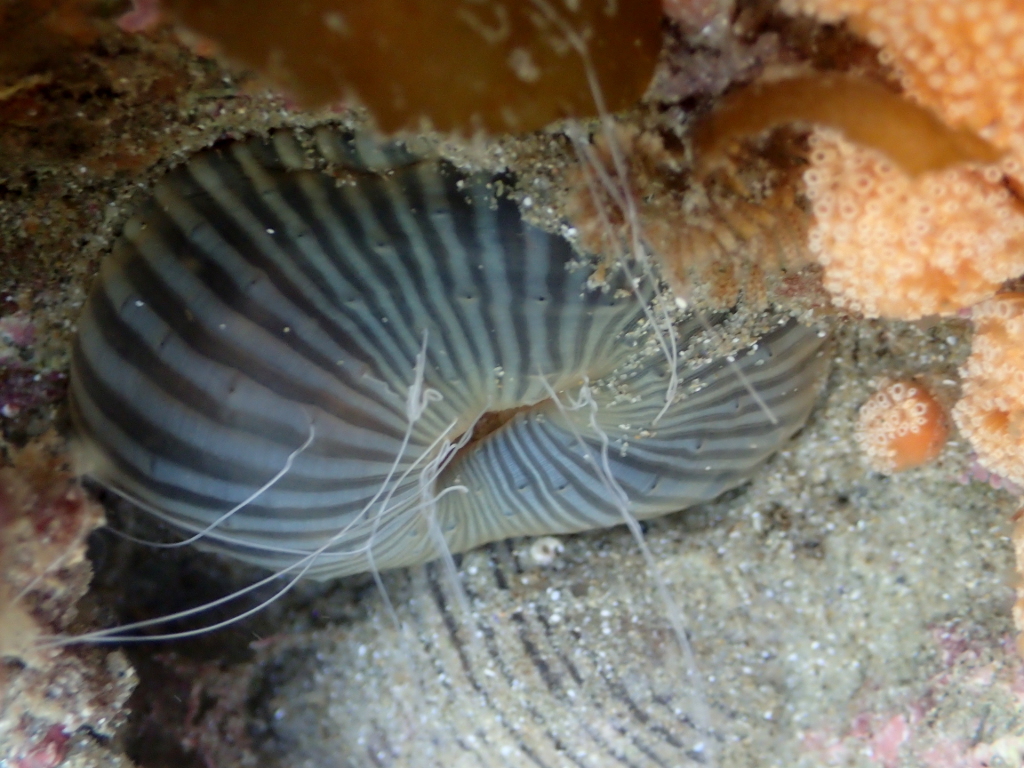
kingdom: Animalia
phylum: Cnidaria
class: Anthozoa
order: Actiniaria
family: Diadumenidae
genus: Diadumene
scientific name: Diadumene neozelanica
